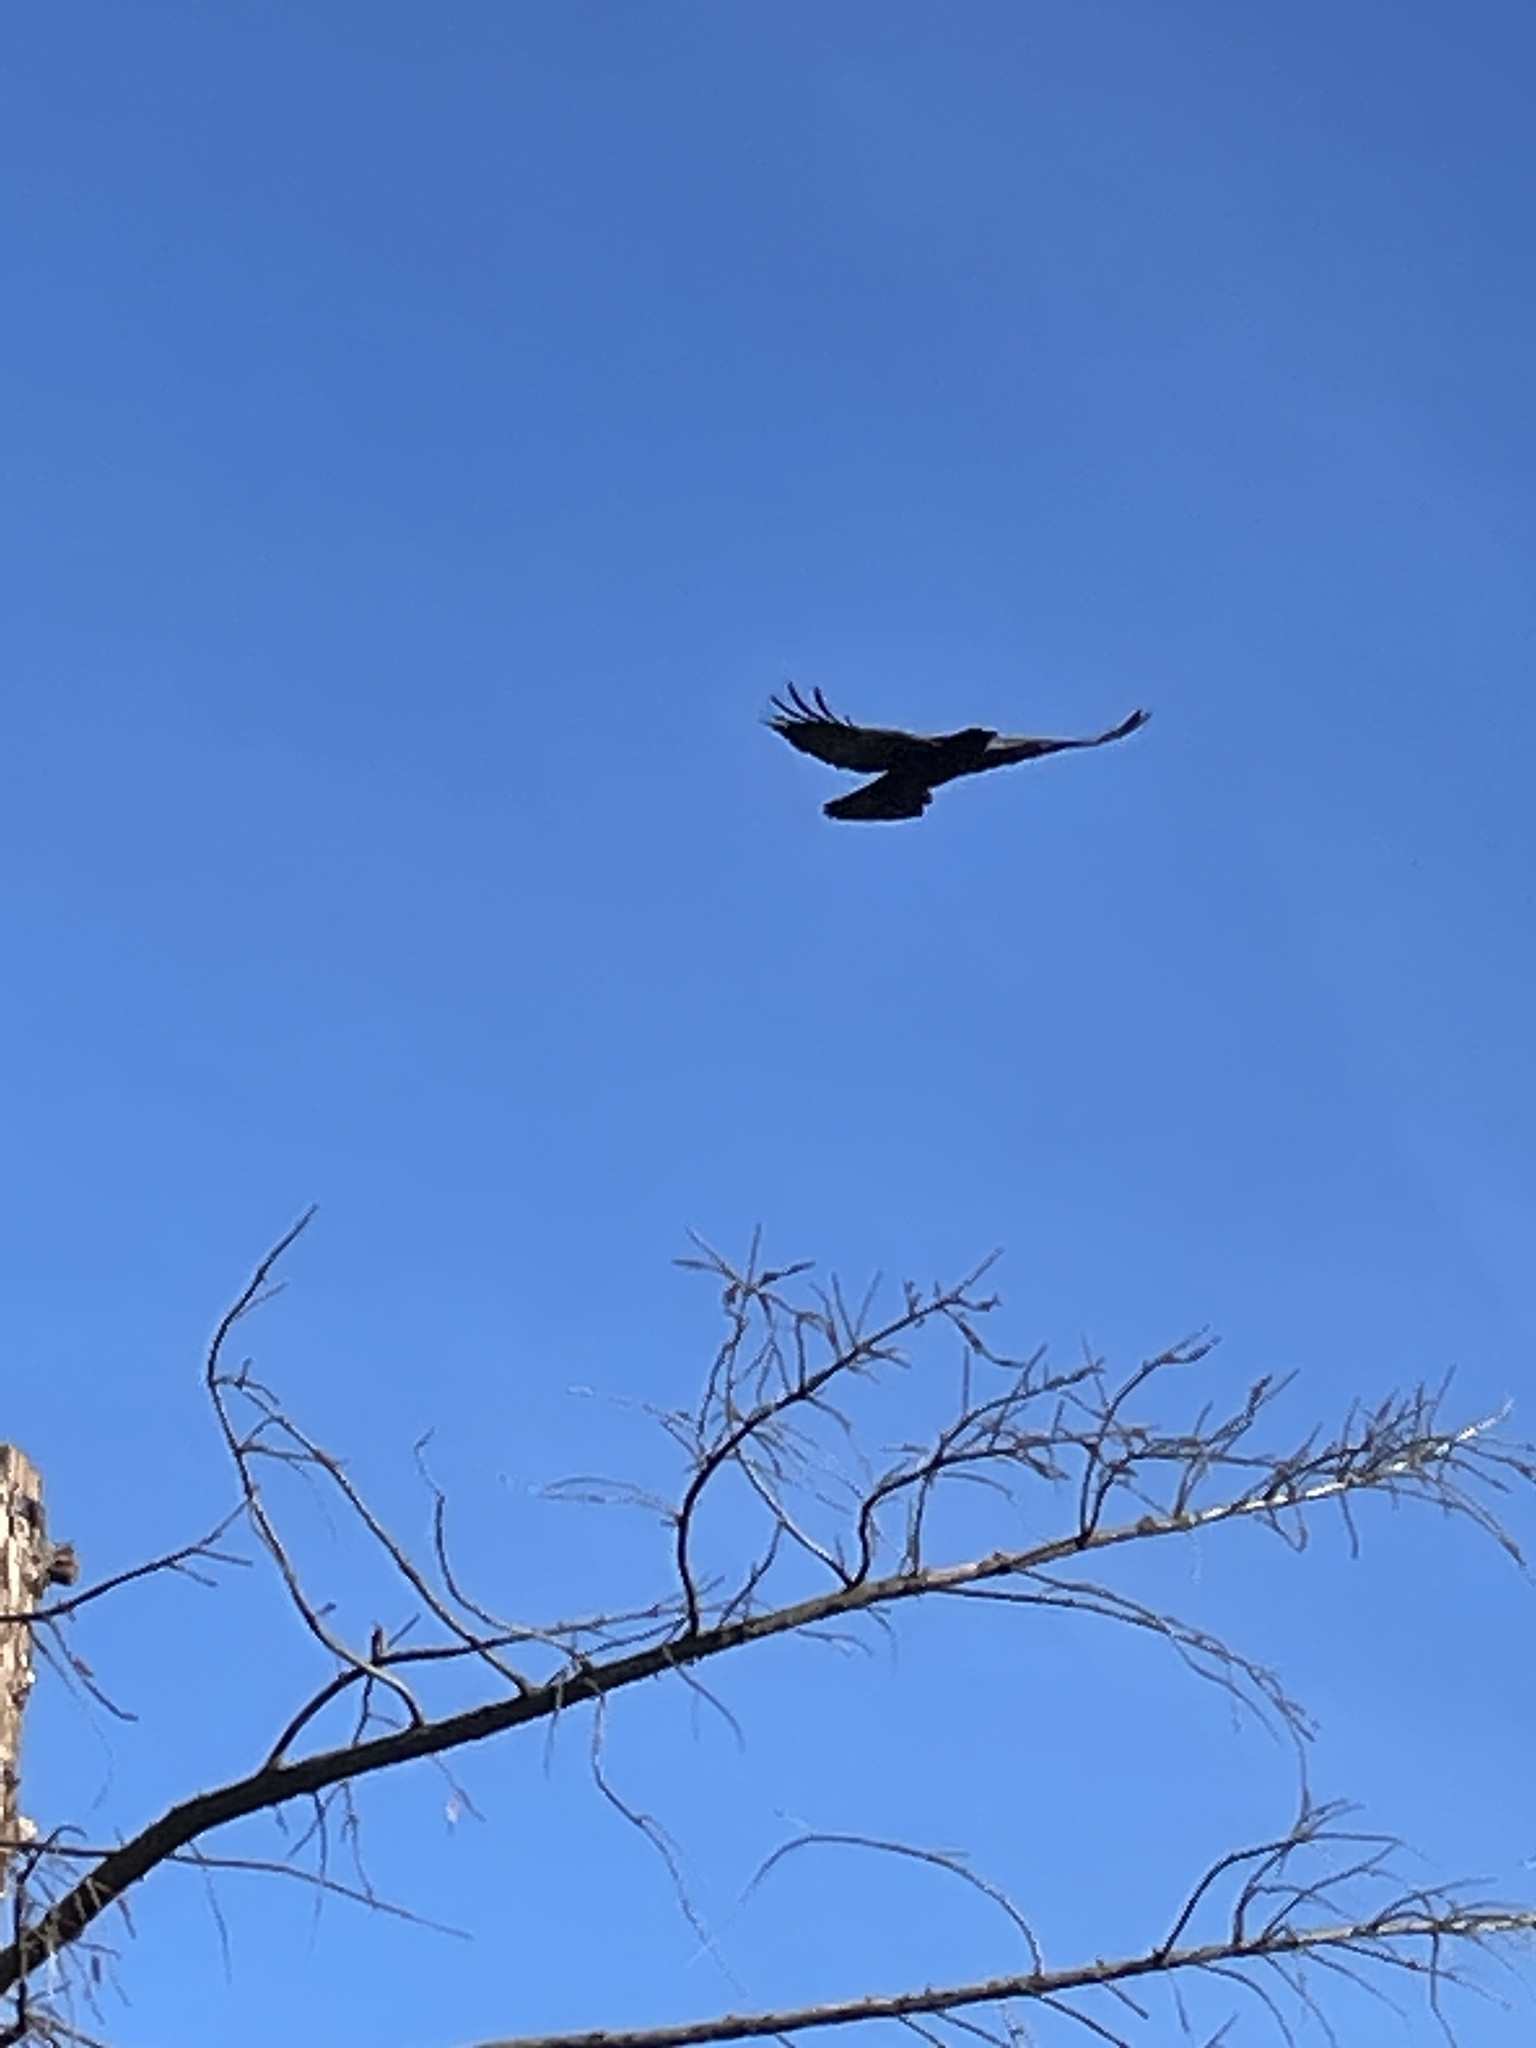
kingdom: Animalia
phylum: Chordata
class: Aves
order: Passeriformes
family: Corvidae
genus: Corvus
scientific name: Corvus brachyrhynchos
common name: American crow
